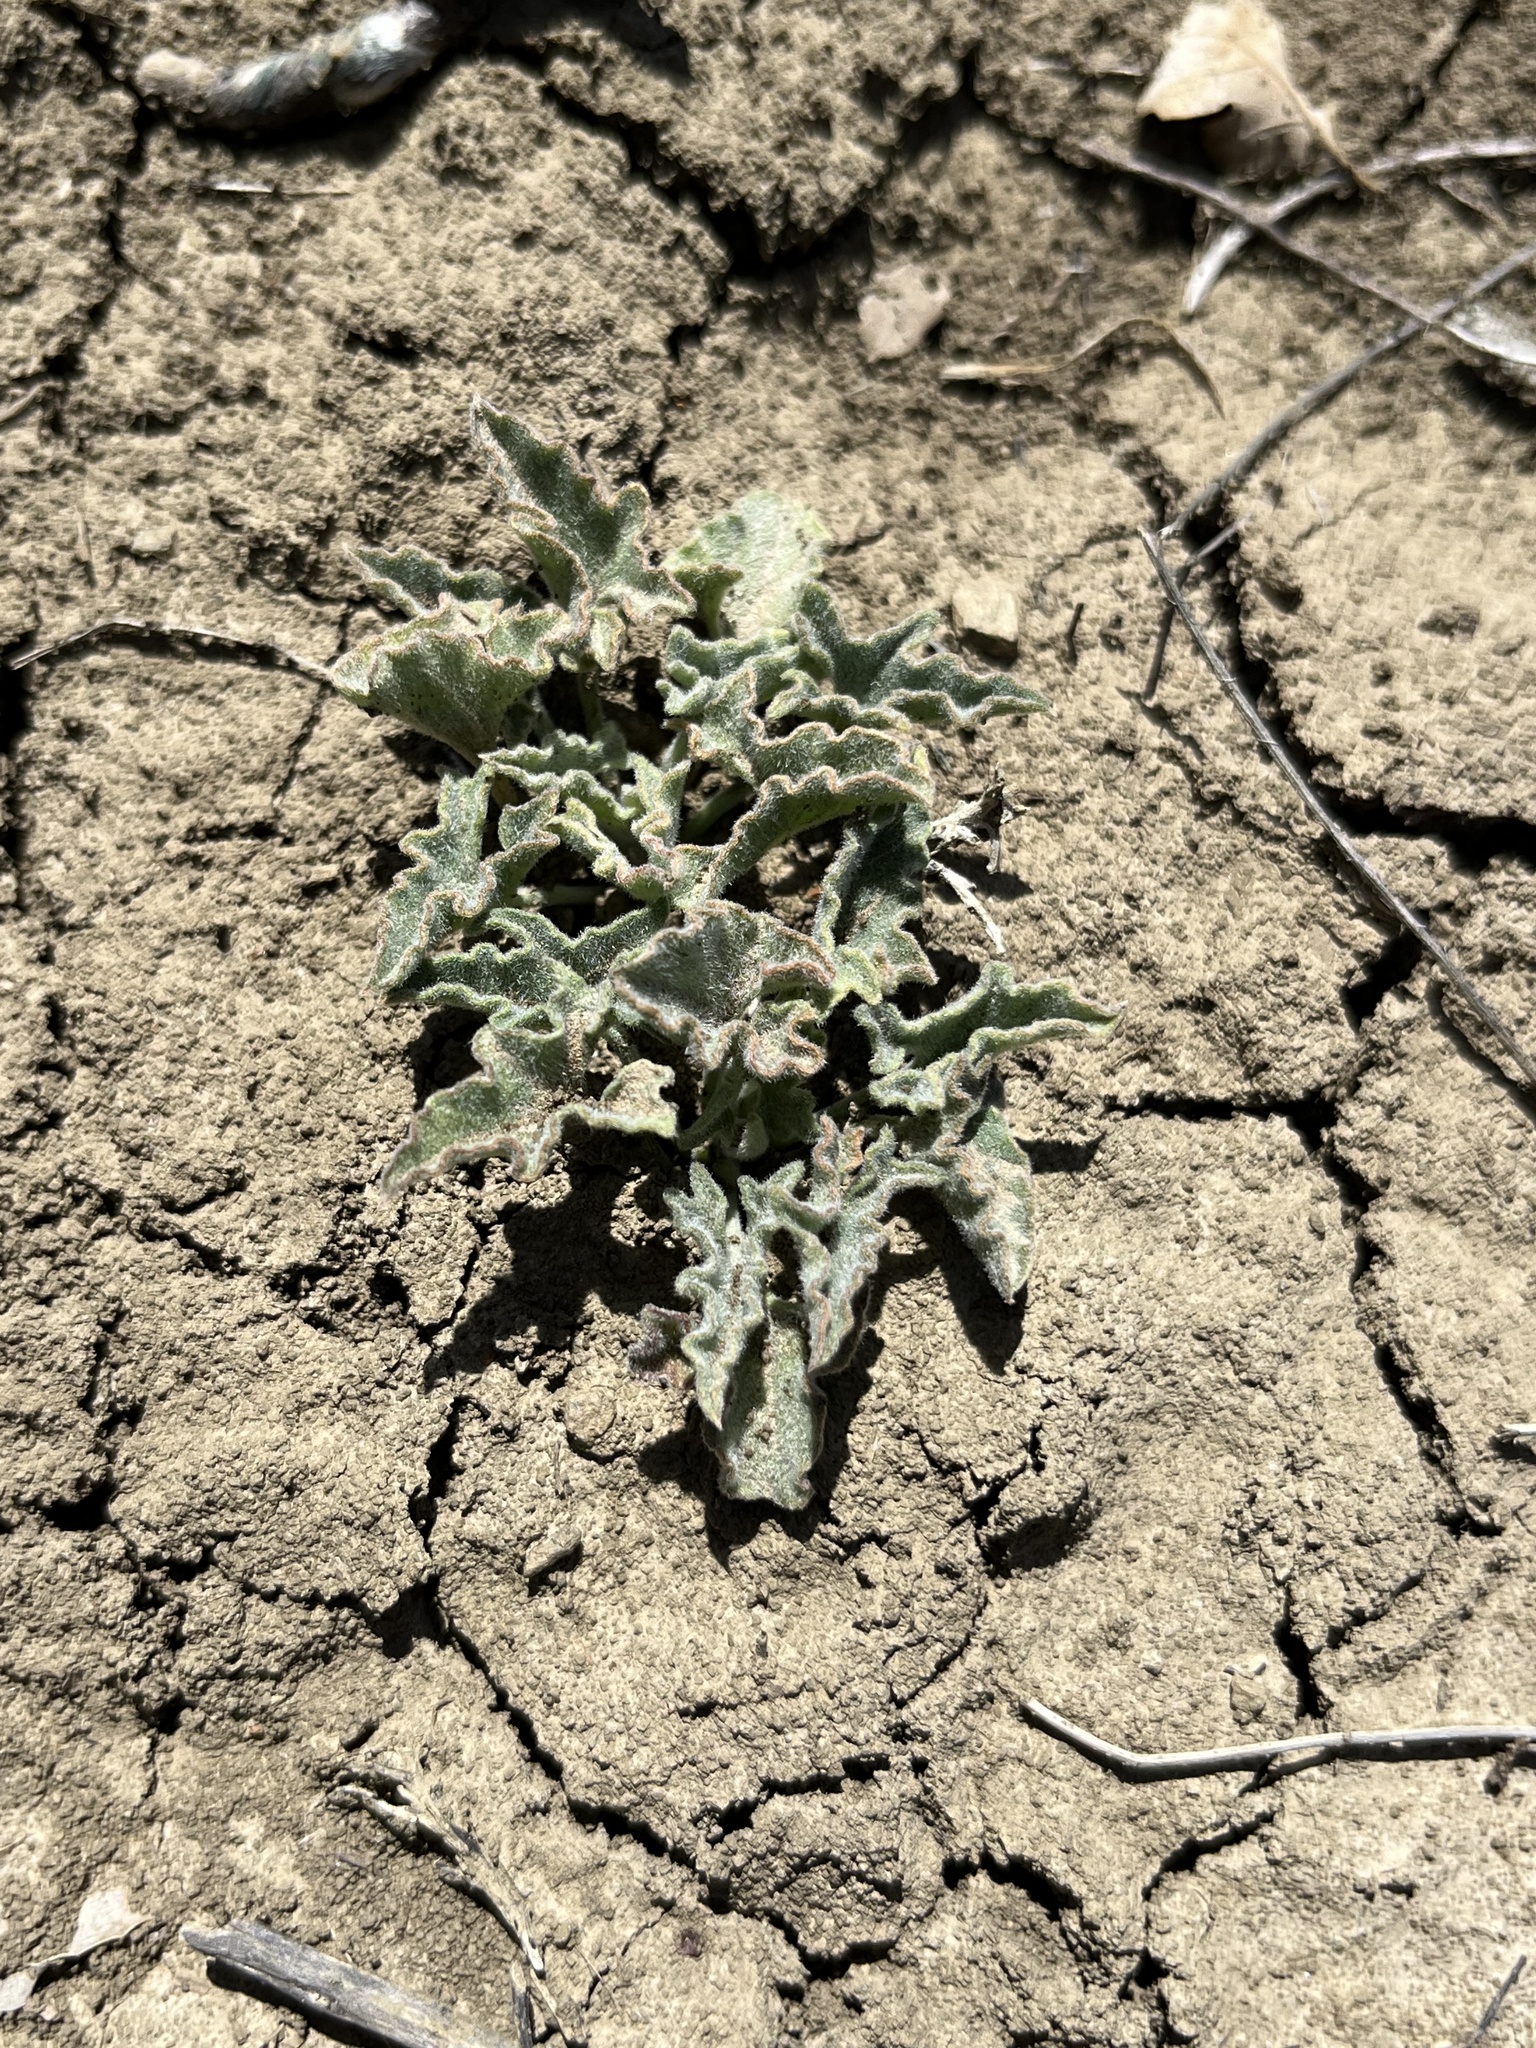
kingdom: Plantae
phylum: Tracheophyta
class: Magnoliopsida
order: Solanales
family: Convolvulaceae
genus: Calystegia
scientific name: Calystegia collina
